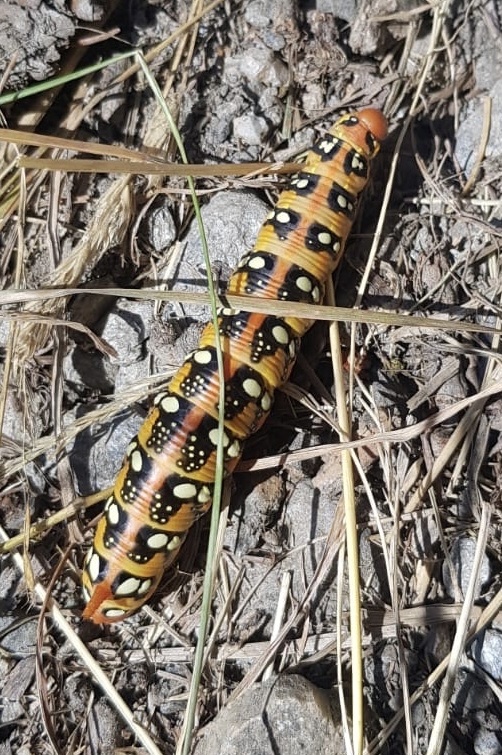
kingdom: Animalia
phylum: Arthropoda
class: Insecta
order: Lepidoptera
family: Sphingidae
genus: Hyles
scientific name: Hyles euphorbiae
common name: Spurge hawk-moth
